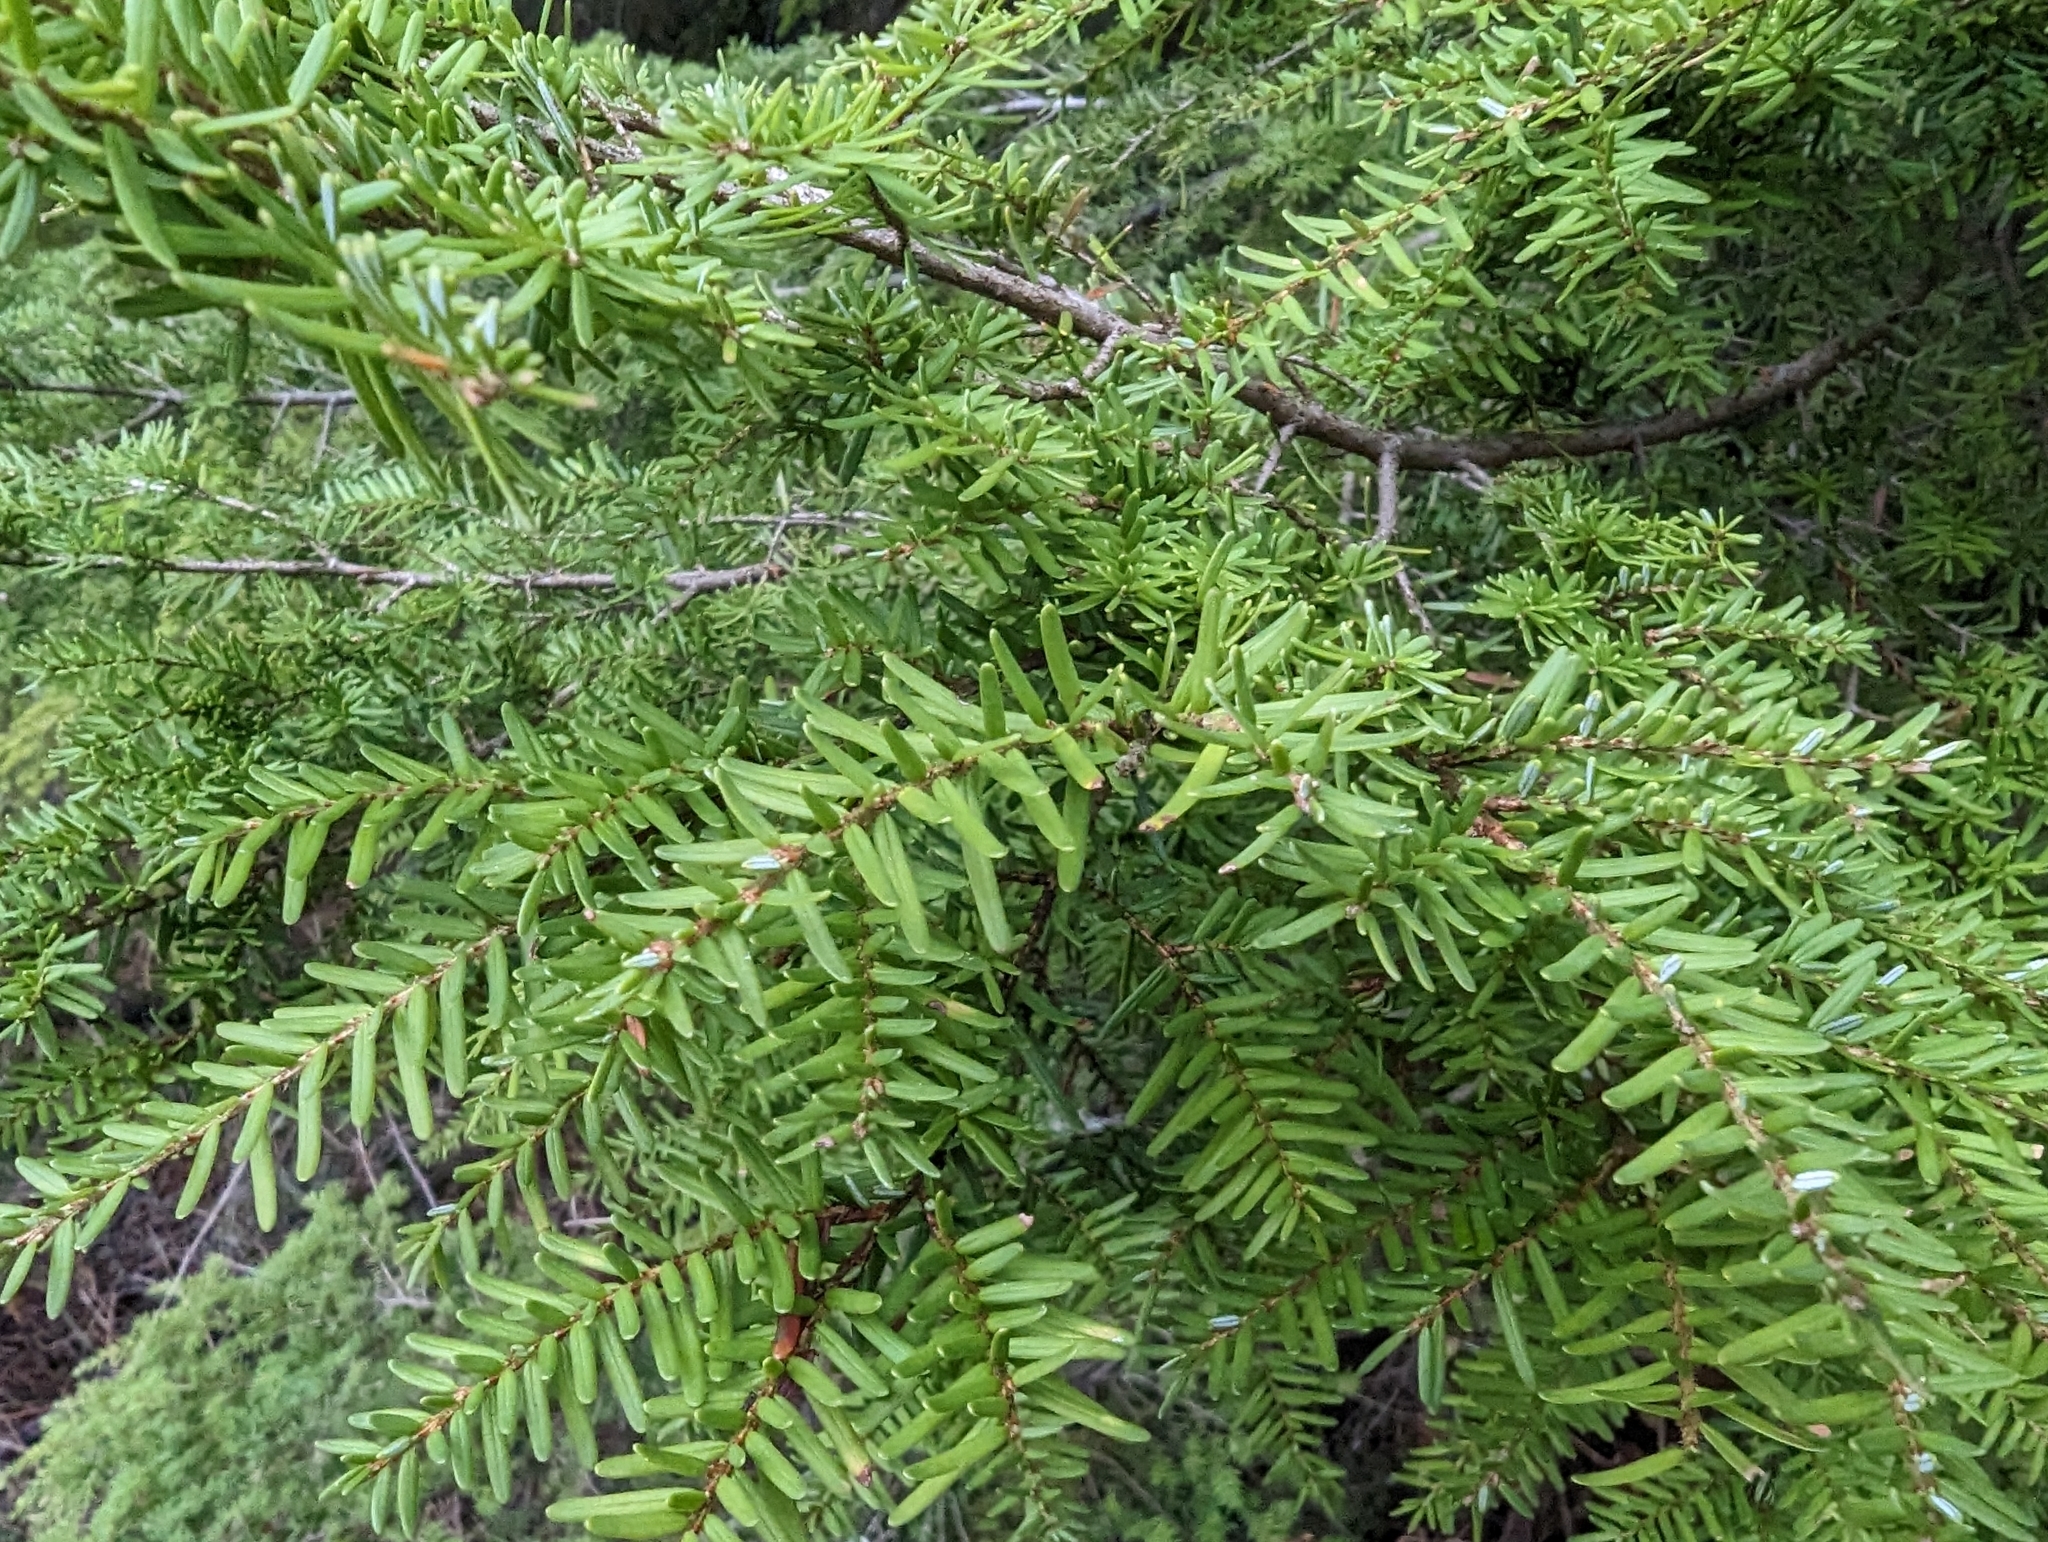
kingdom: Plantae
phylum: Tracheophyta
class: Pinopsida
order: Pinales
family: Pinaceae
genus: Tsuga
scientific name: Tsuga heterophylla
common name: Western hemlock
